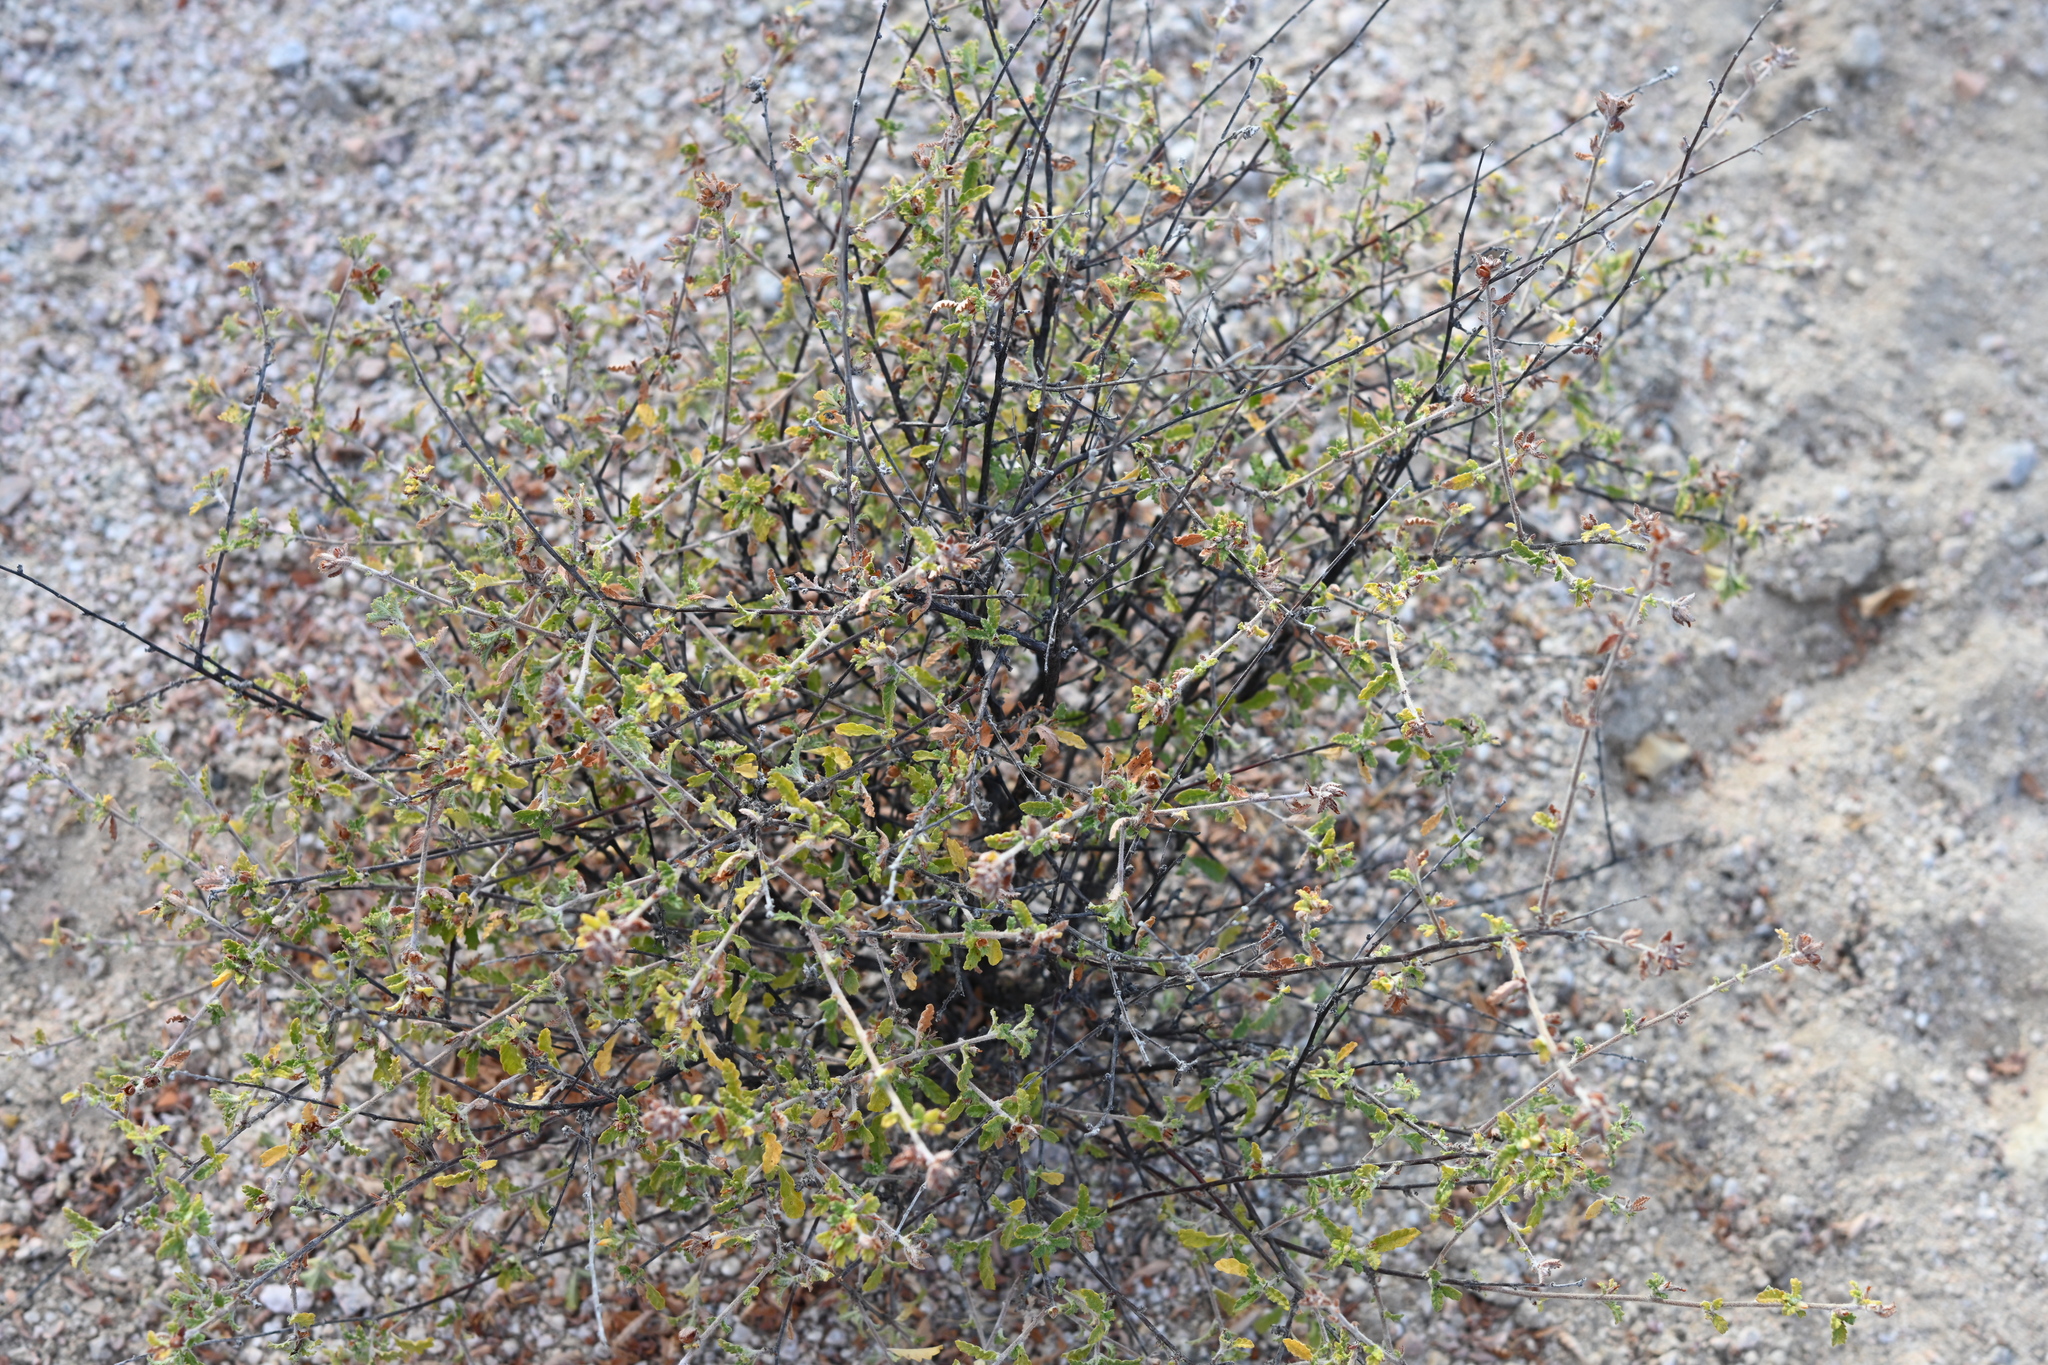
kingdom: Plantae
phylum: Tracheophyta
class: Magnoliopsida
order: Malpighiales
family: Turneraceae
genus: Turnera
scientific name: Turnera diffusa
